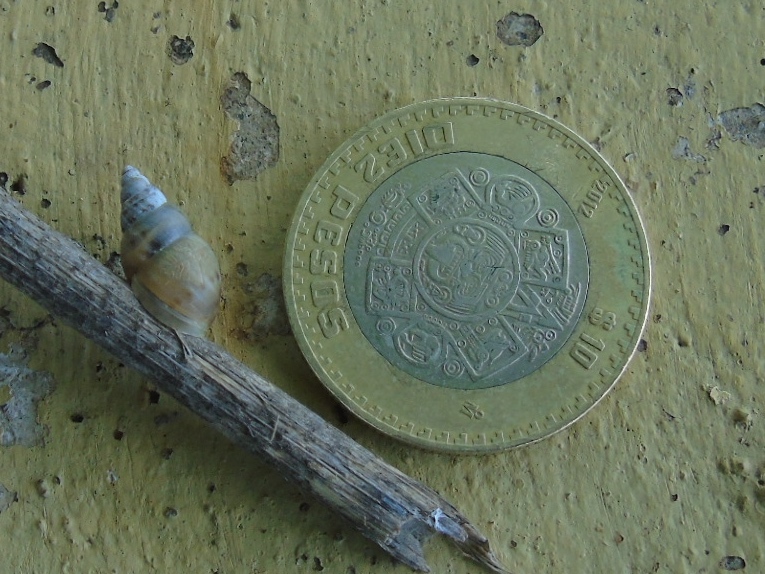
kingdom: Animalia
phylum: Mollusca
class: Gastropoda
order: Stylommatophora
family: Bulimulidae
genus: Bulimulus
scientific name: Bulimulus
